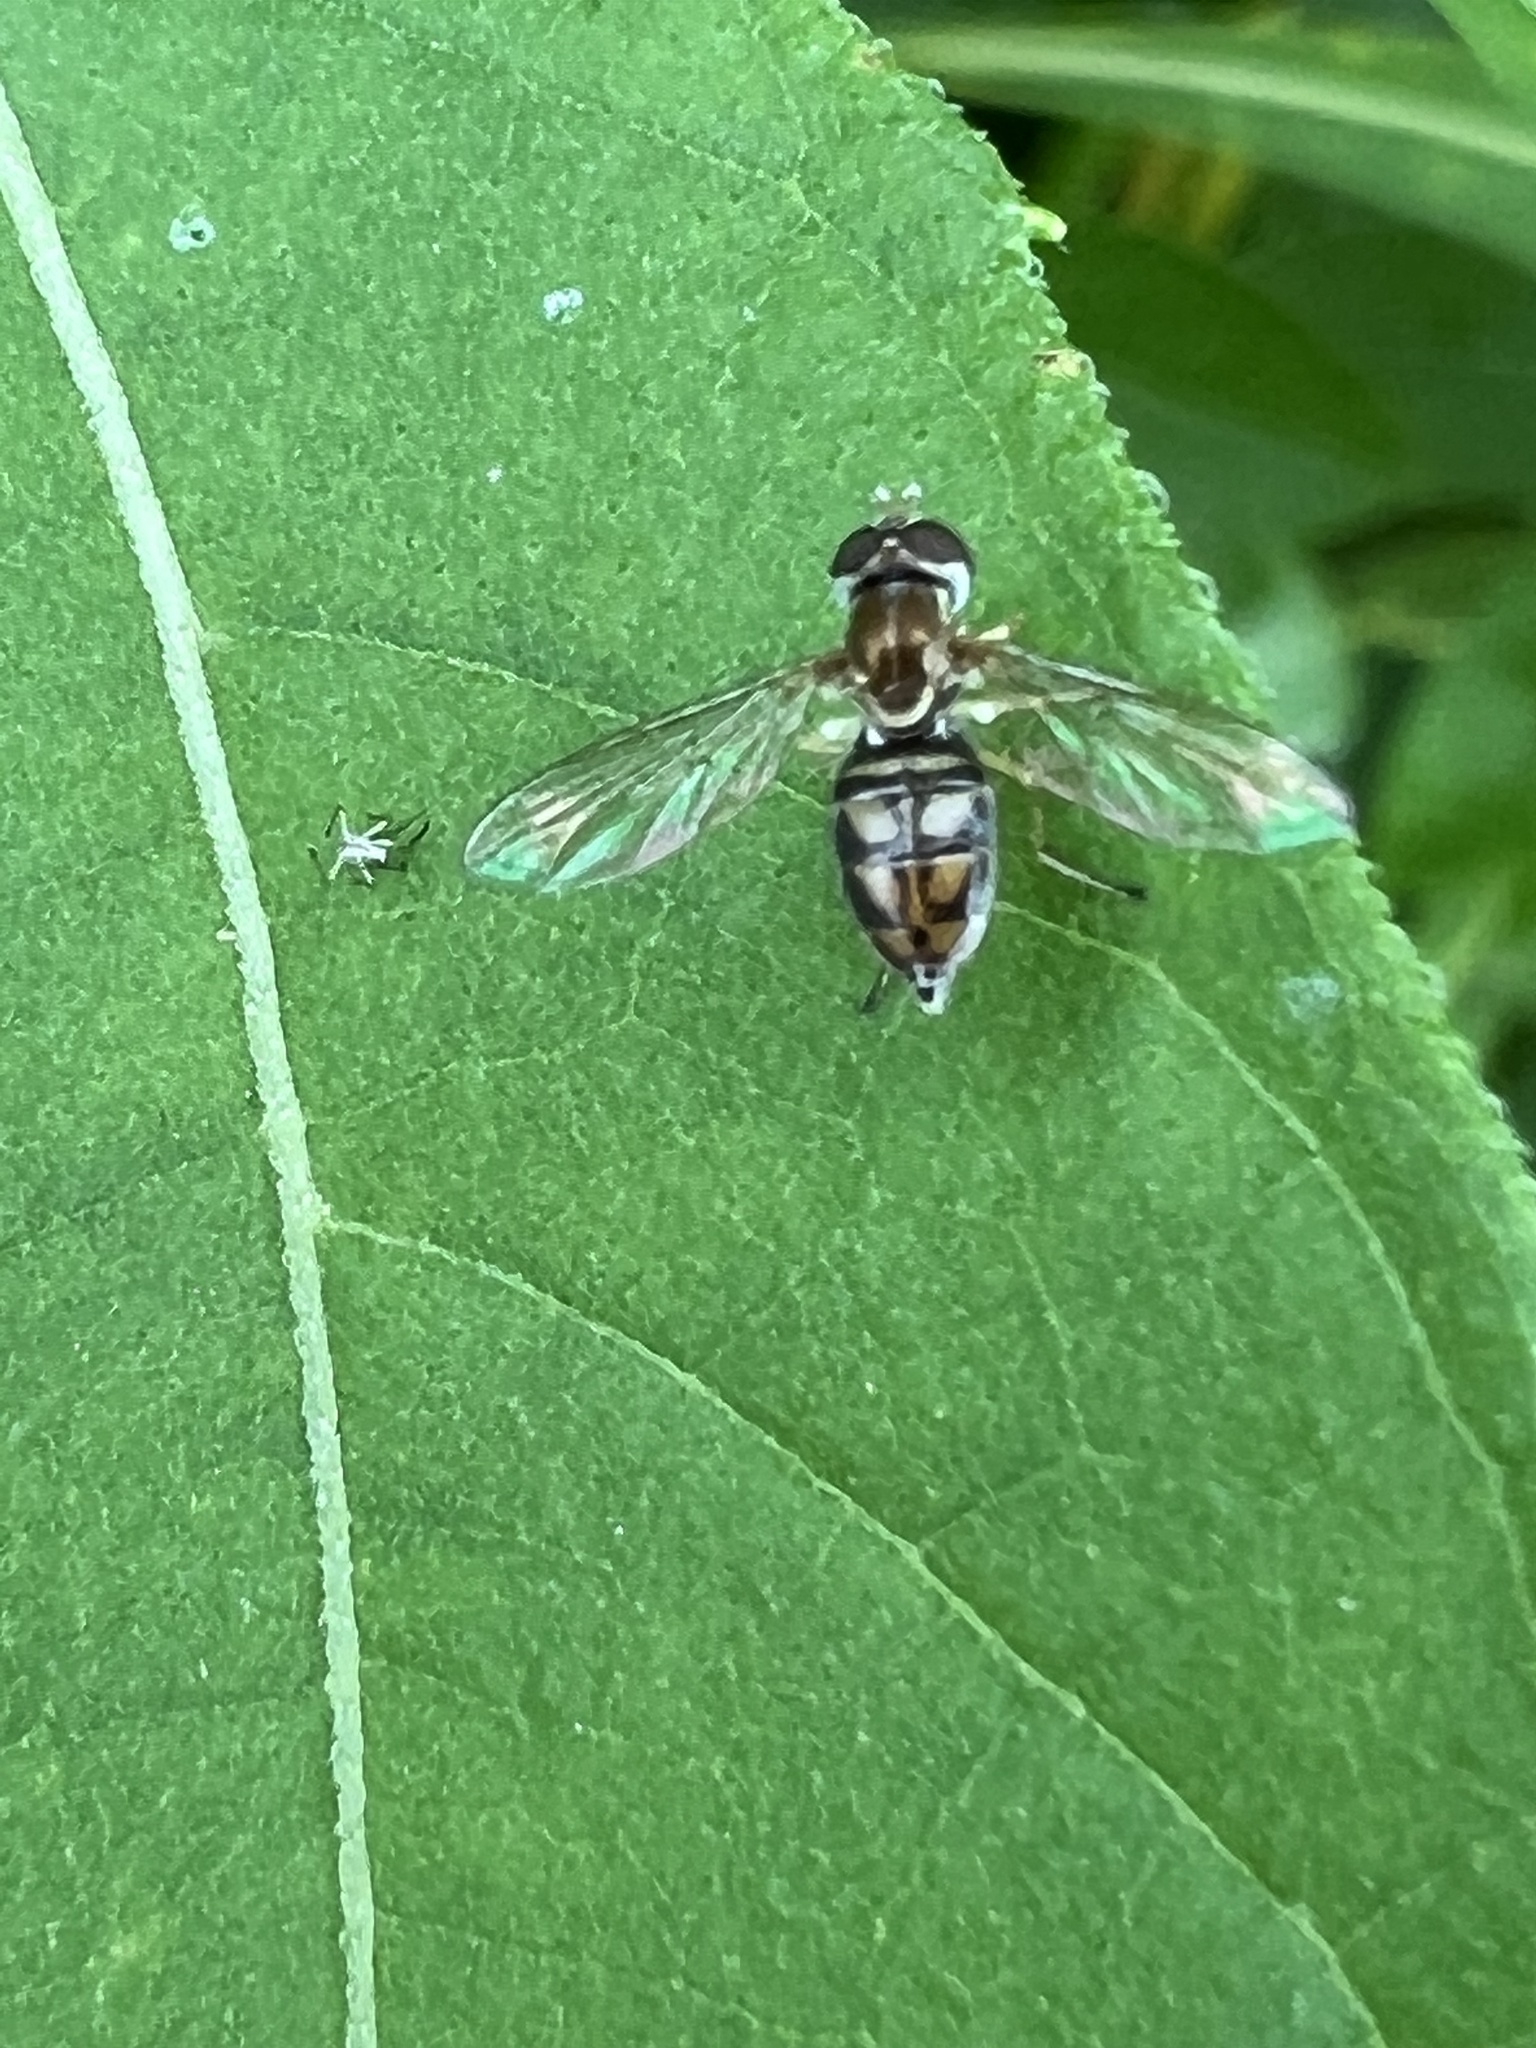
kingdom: Animalia
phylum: Arthropoda
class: Insecta
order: Diptera
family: Syrphidae
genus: Toxomerus
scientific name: Toxomerus marginatus
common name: Syrphid fly
